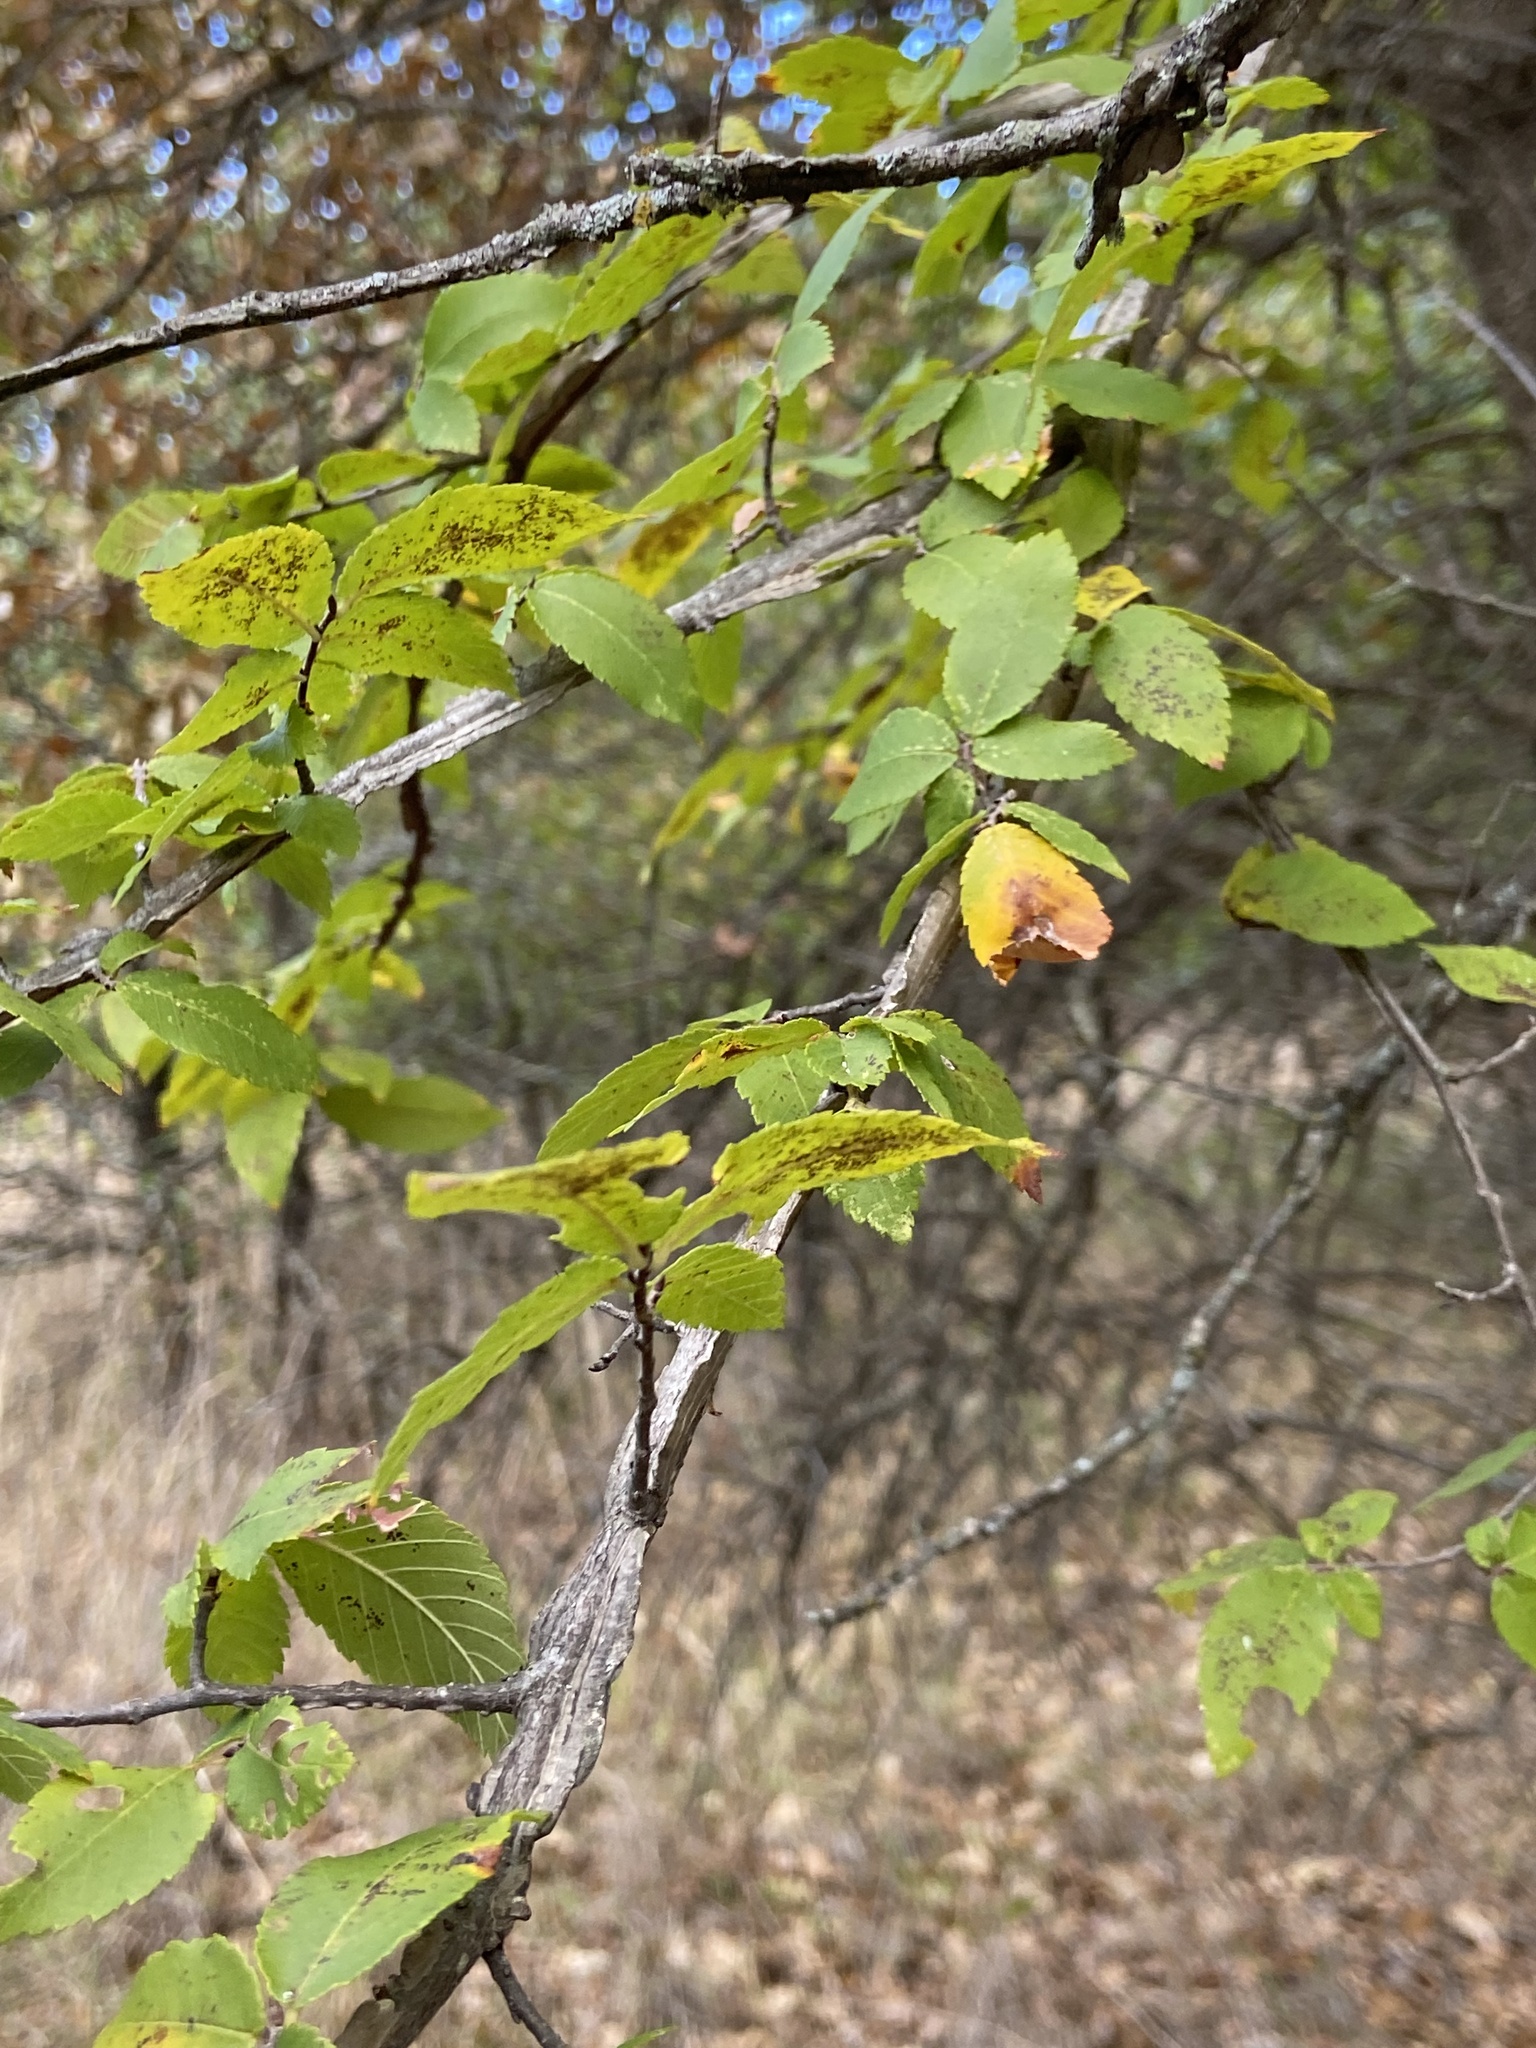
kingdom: Plantae
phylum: Tracheophyta
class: Magnoliopsida
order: Rosales
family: Ulmaceae
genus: Ulmus
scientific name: Ulmus alata
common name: Winged elm
